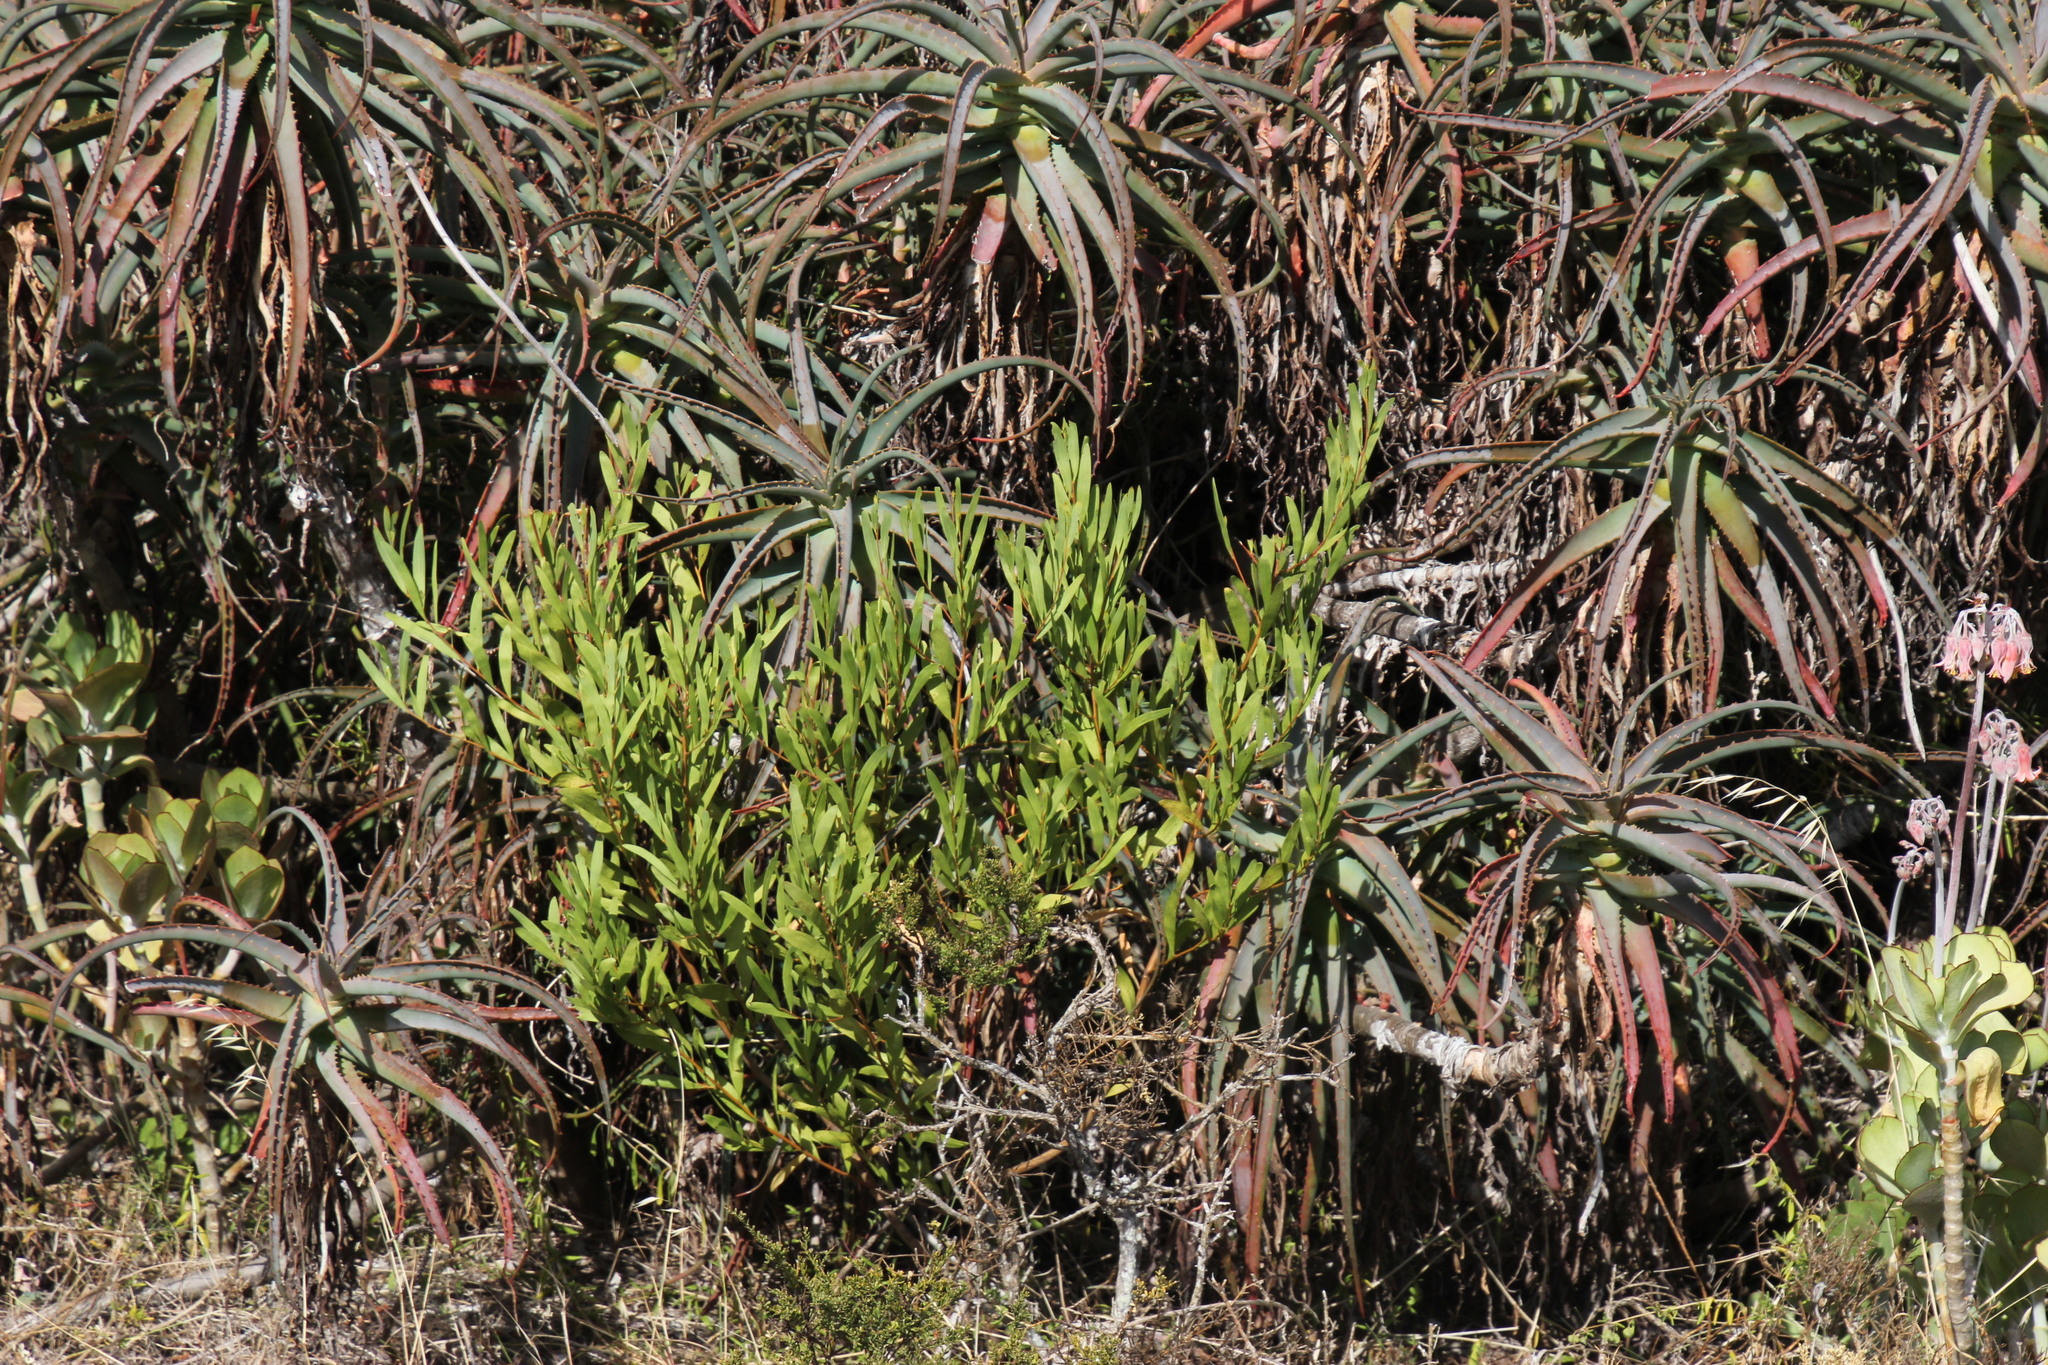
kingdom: Plantae
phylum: Tracheophyta
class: Magnoliopsida
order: Fabales
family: Fabaceae
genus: Acacia
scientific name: Acacia cyclops
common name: Coastal wattle
